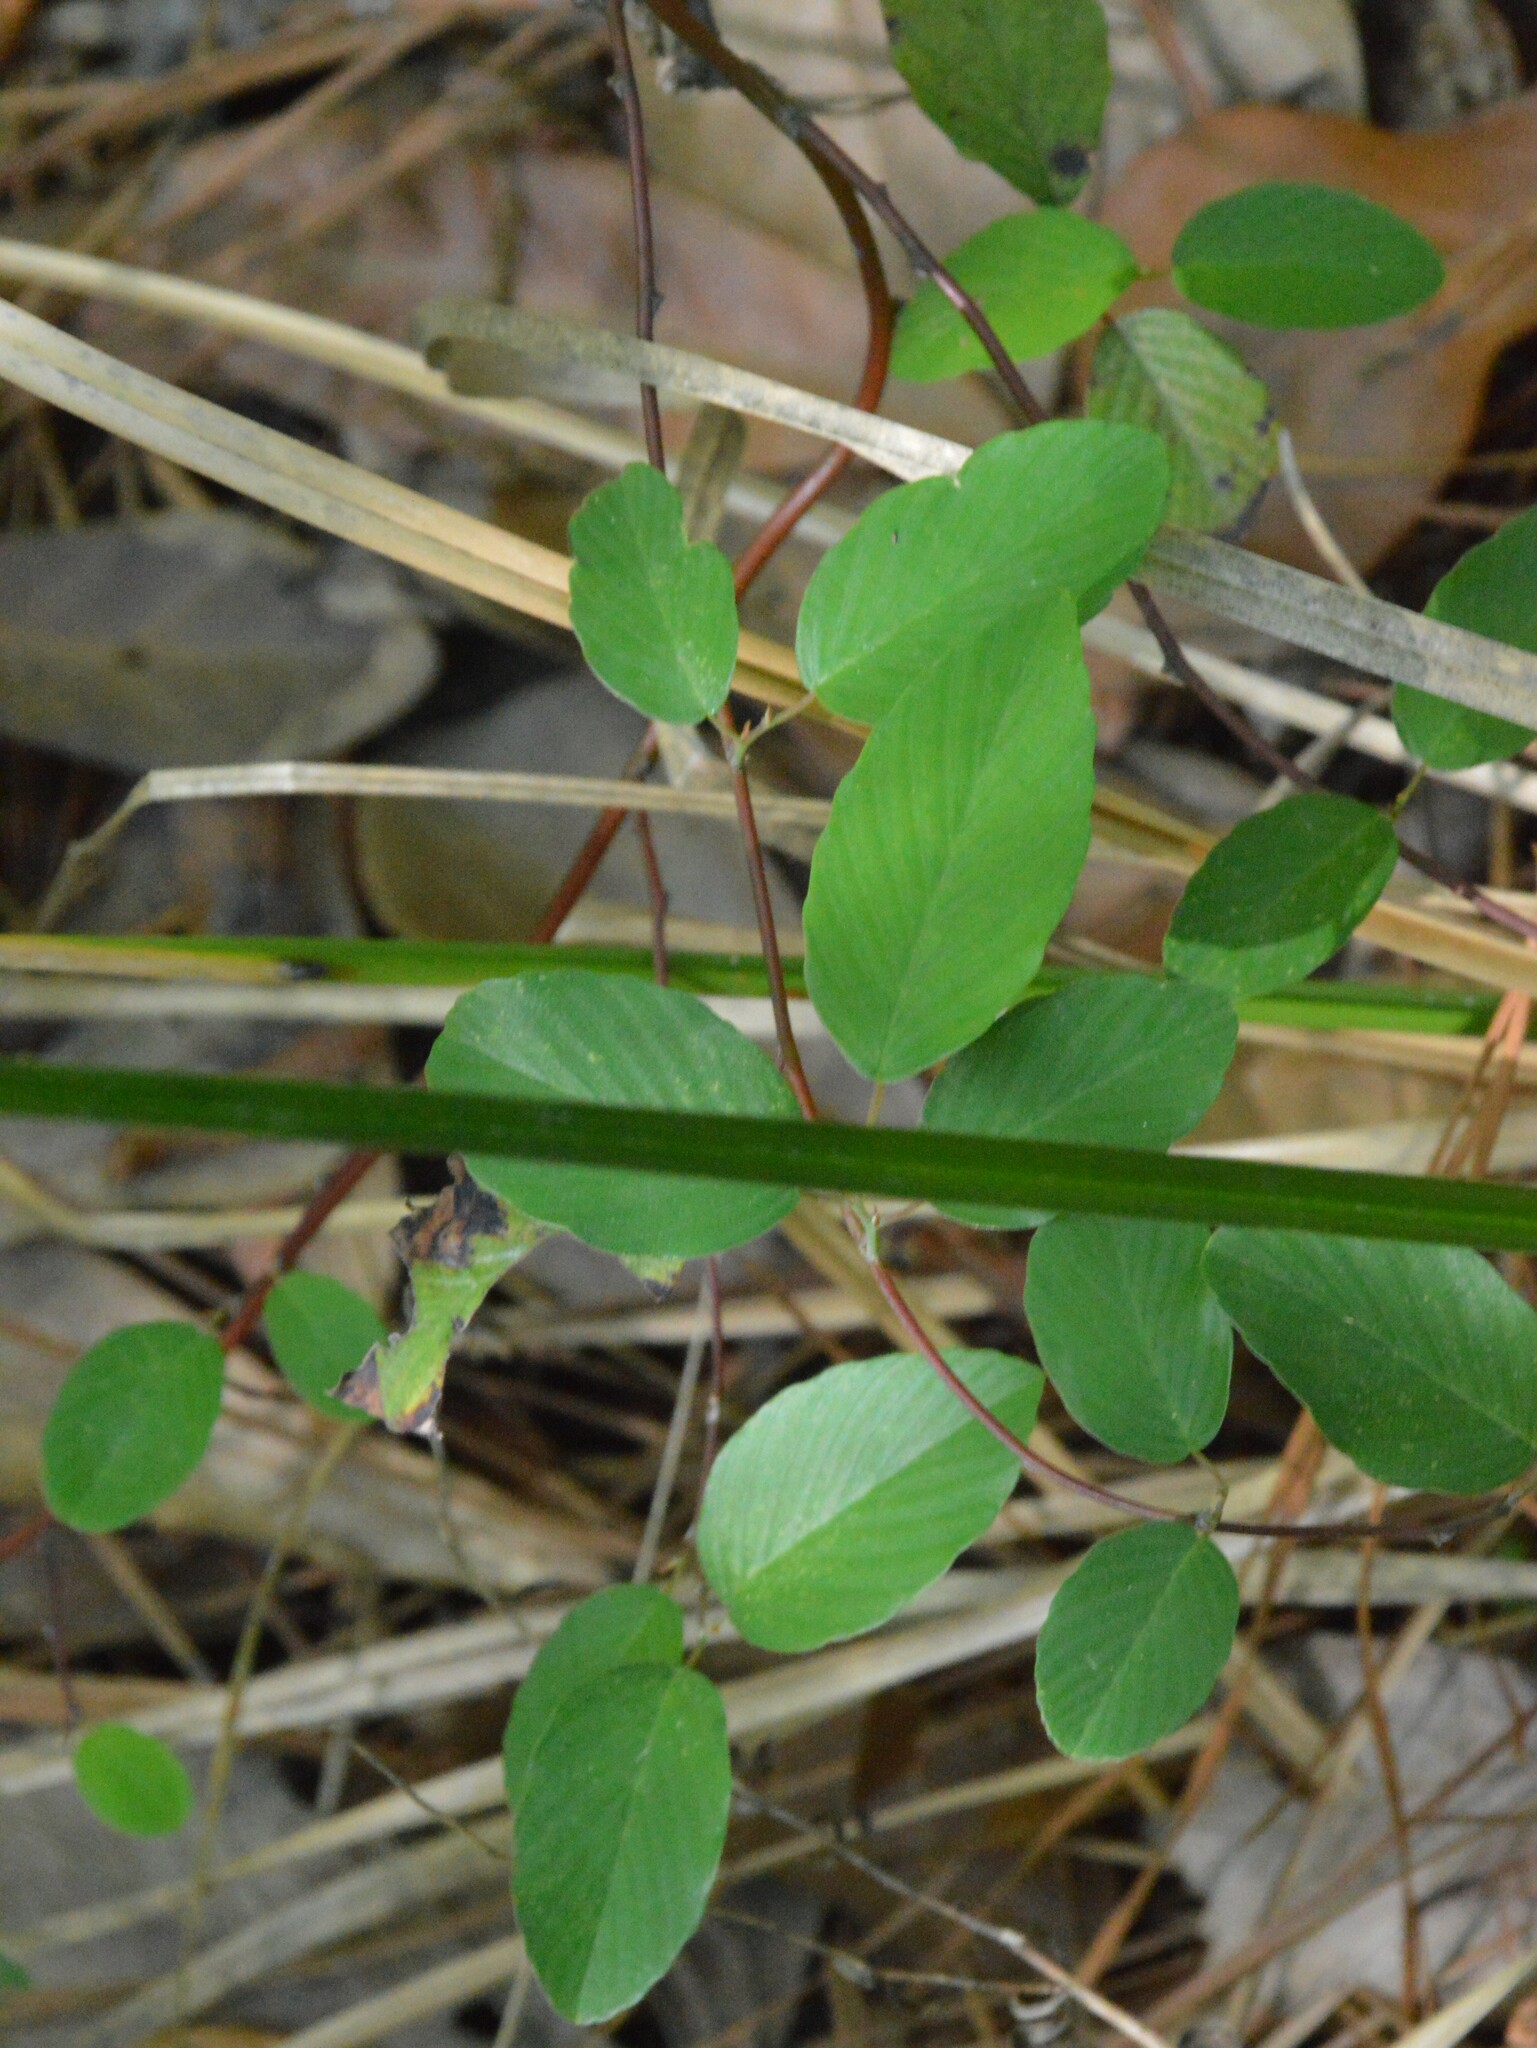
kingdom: Plantae
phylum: Tracheophyta
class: Magnoliopsida
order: Rosales
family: Rhamnaceae
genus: Berchemia
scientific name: Berchemia scandens
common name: Supplejack
